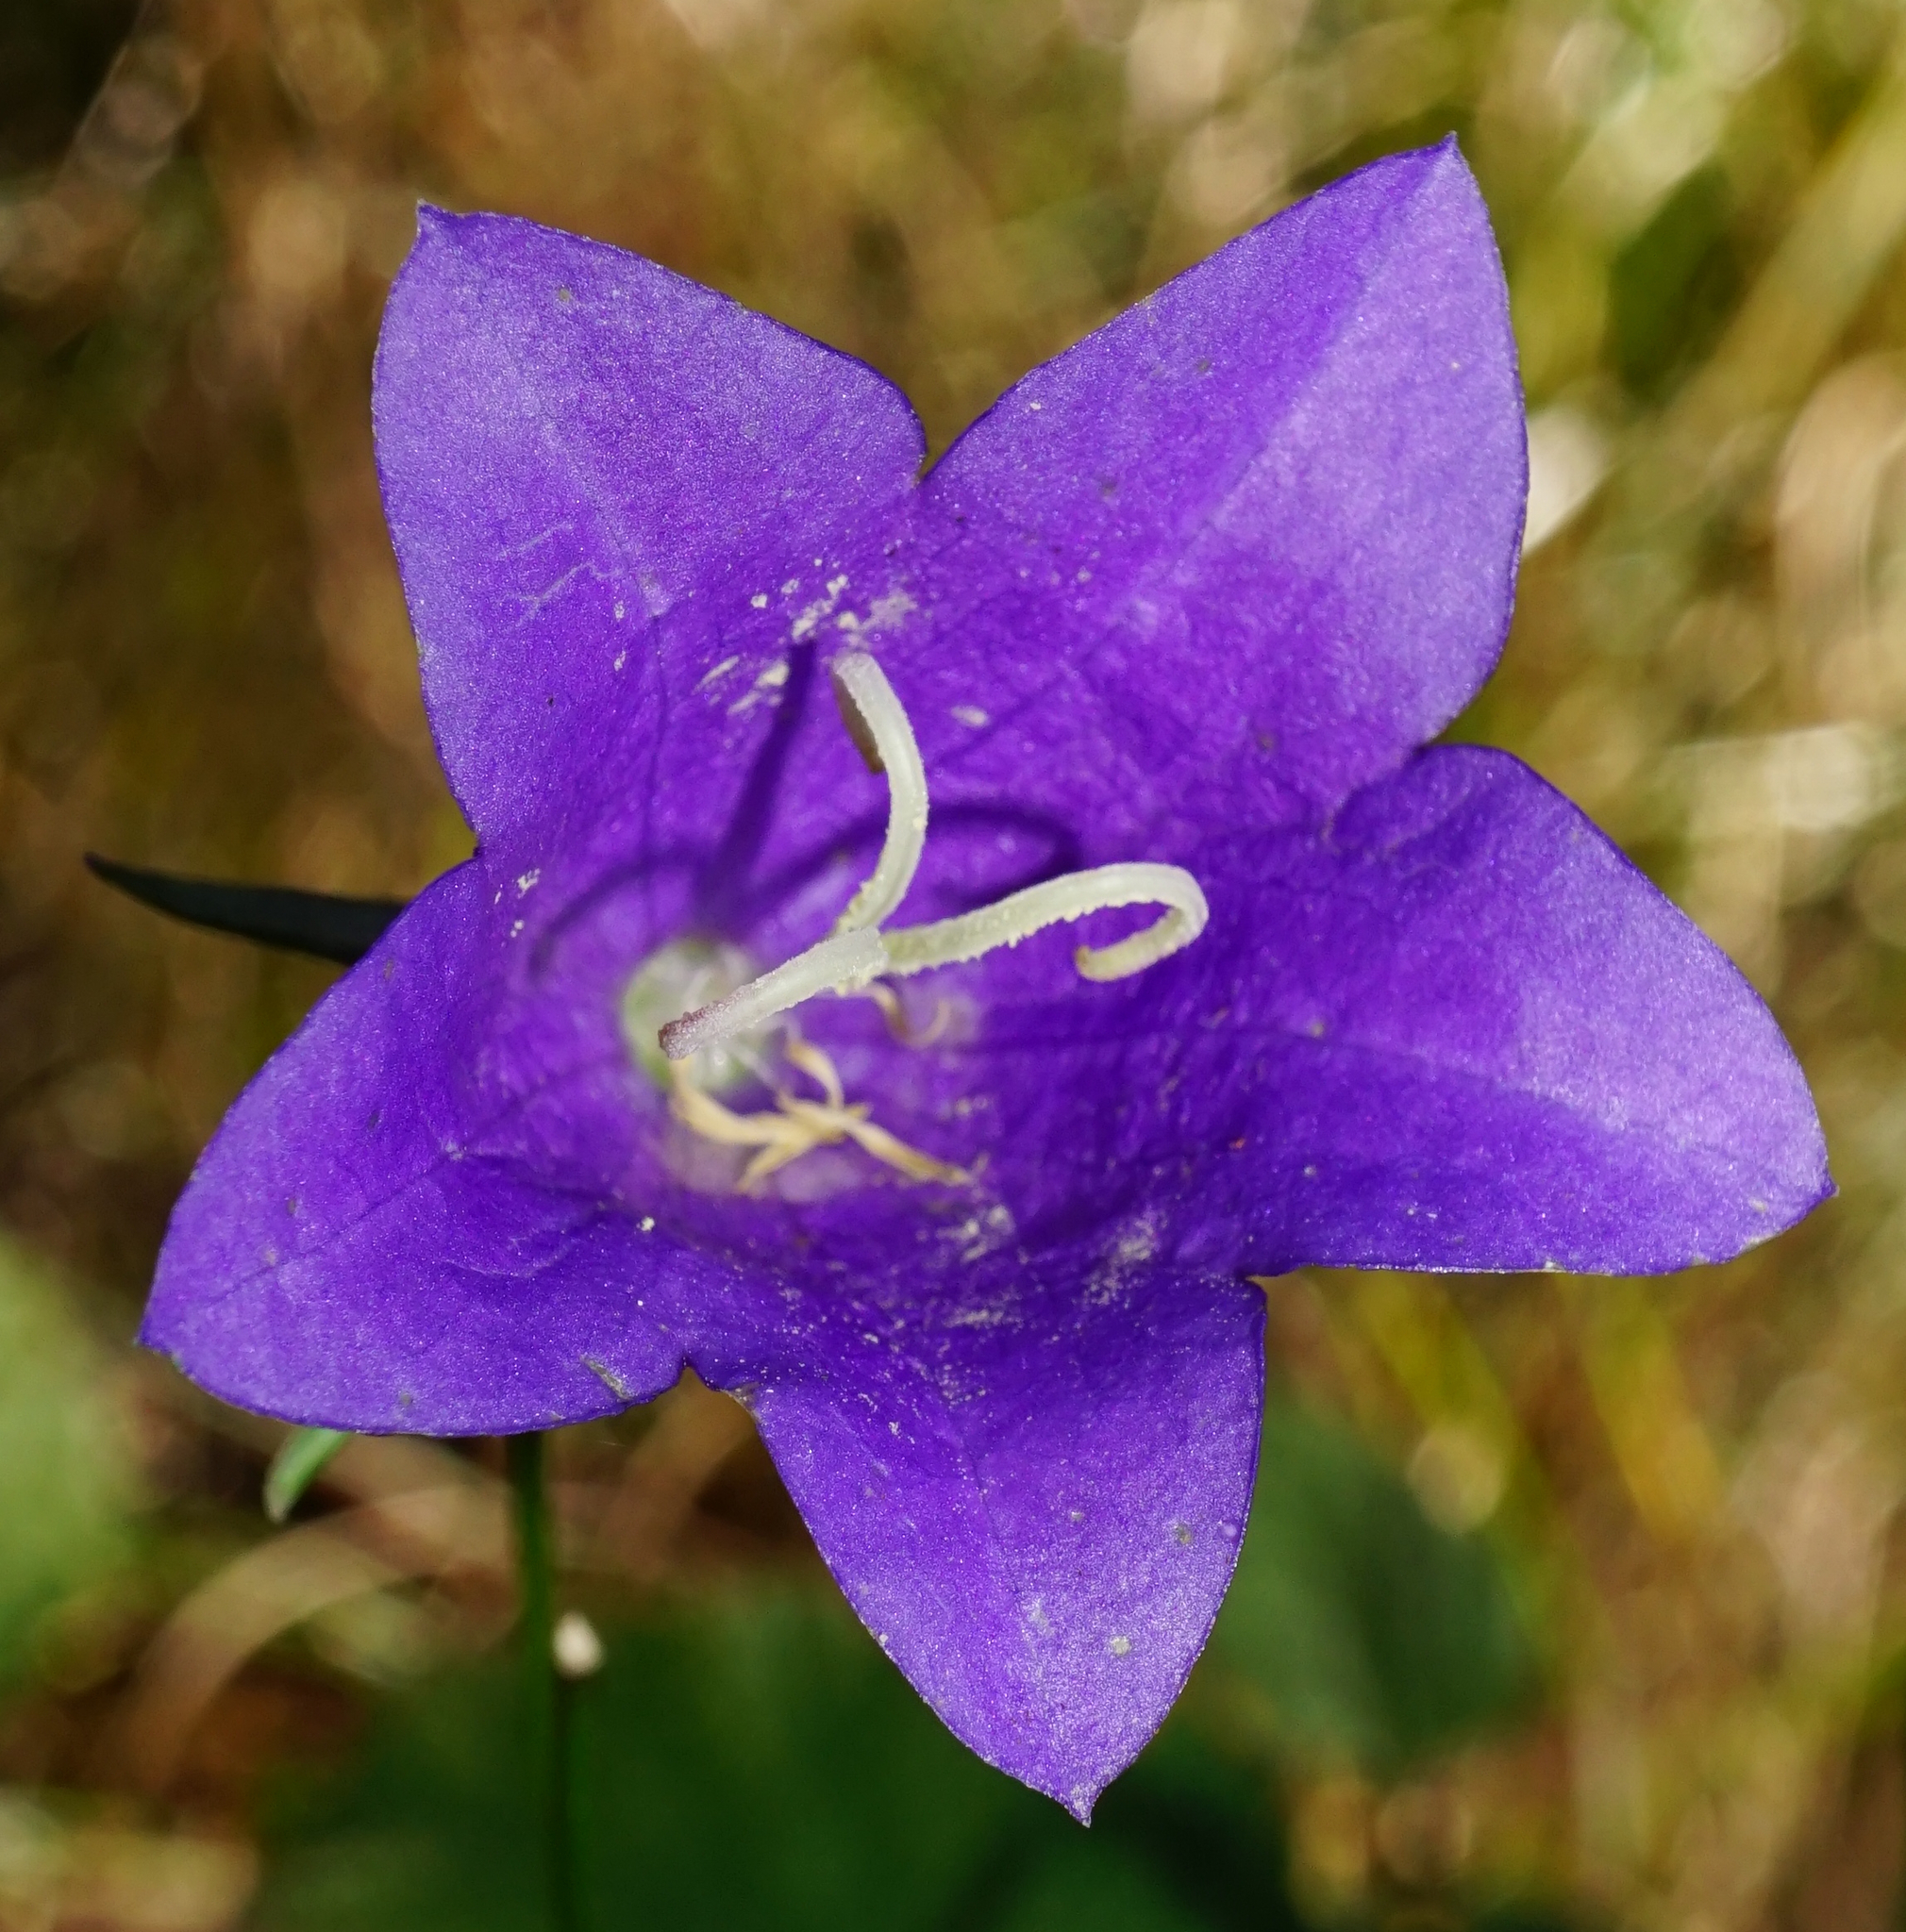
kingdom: Plantae
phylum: Tracheophyta
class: Magnoliopsida
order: Asterales
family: Campanulaceae
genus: Campanula
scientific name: Campanula persicifolia
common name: Peach-leaved bellflower
